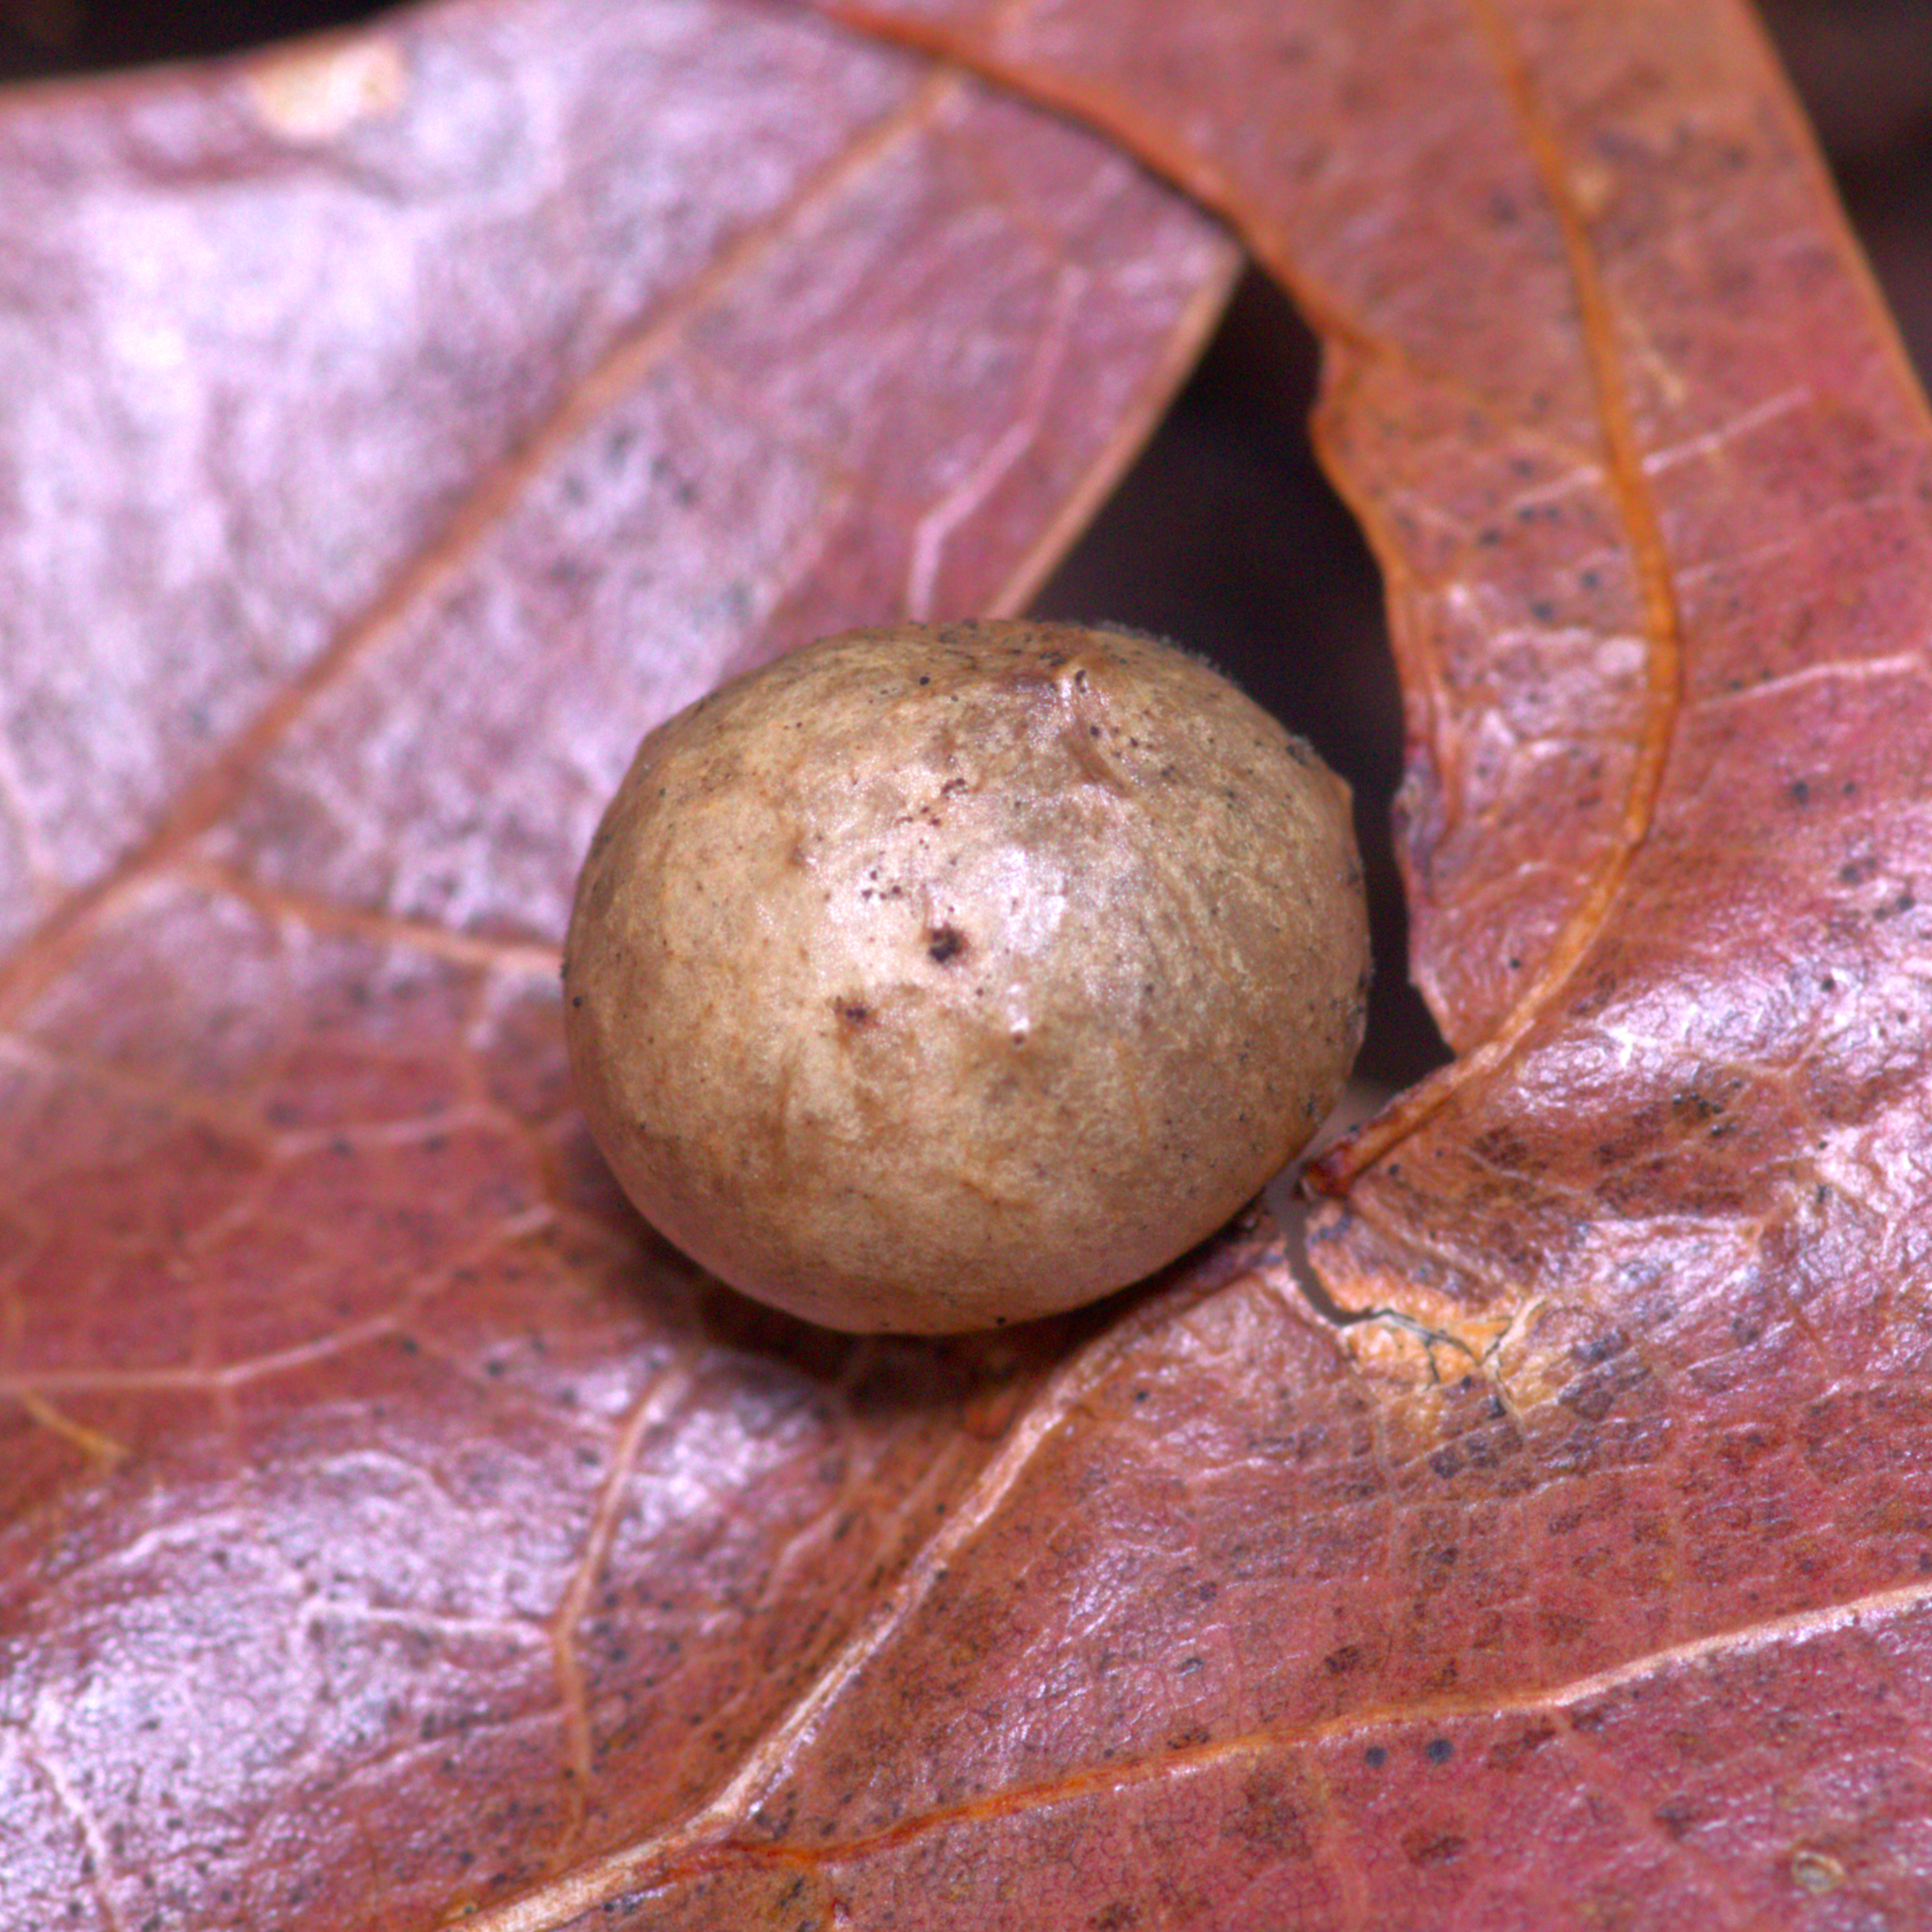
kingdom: Animalia
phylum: Arthropoda
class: Insecta
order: Hymenoptera
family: Cynipidae
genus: Amphibolips
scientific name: Amphibolips
